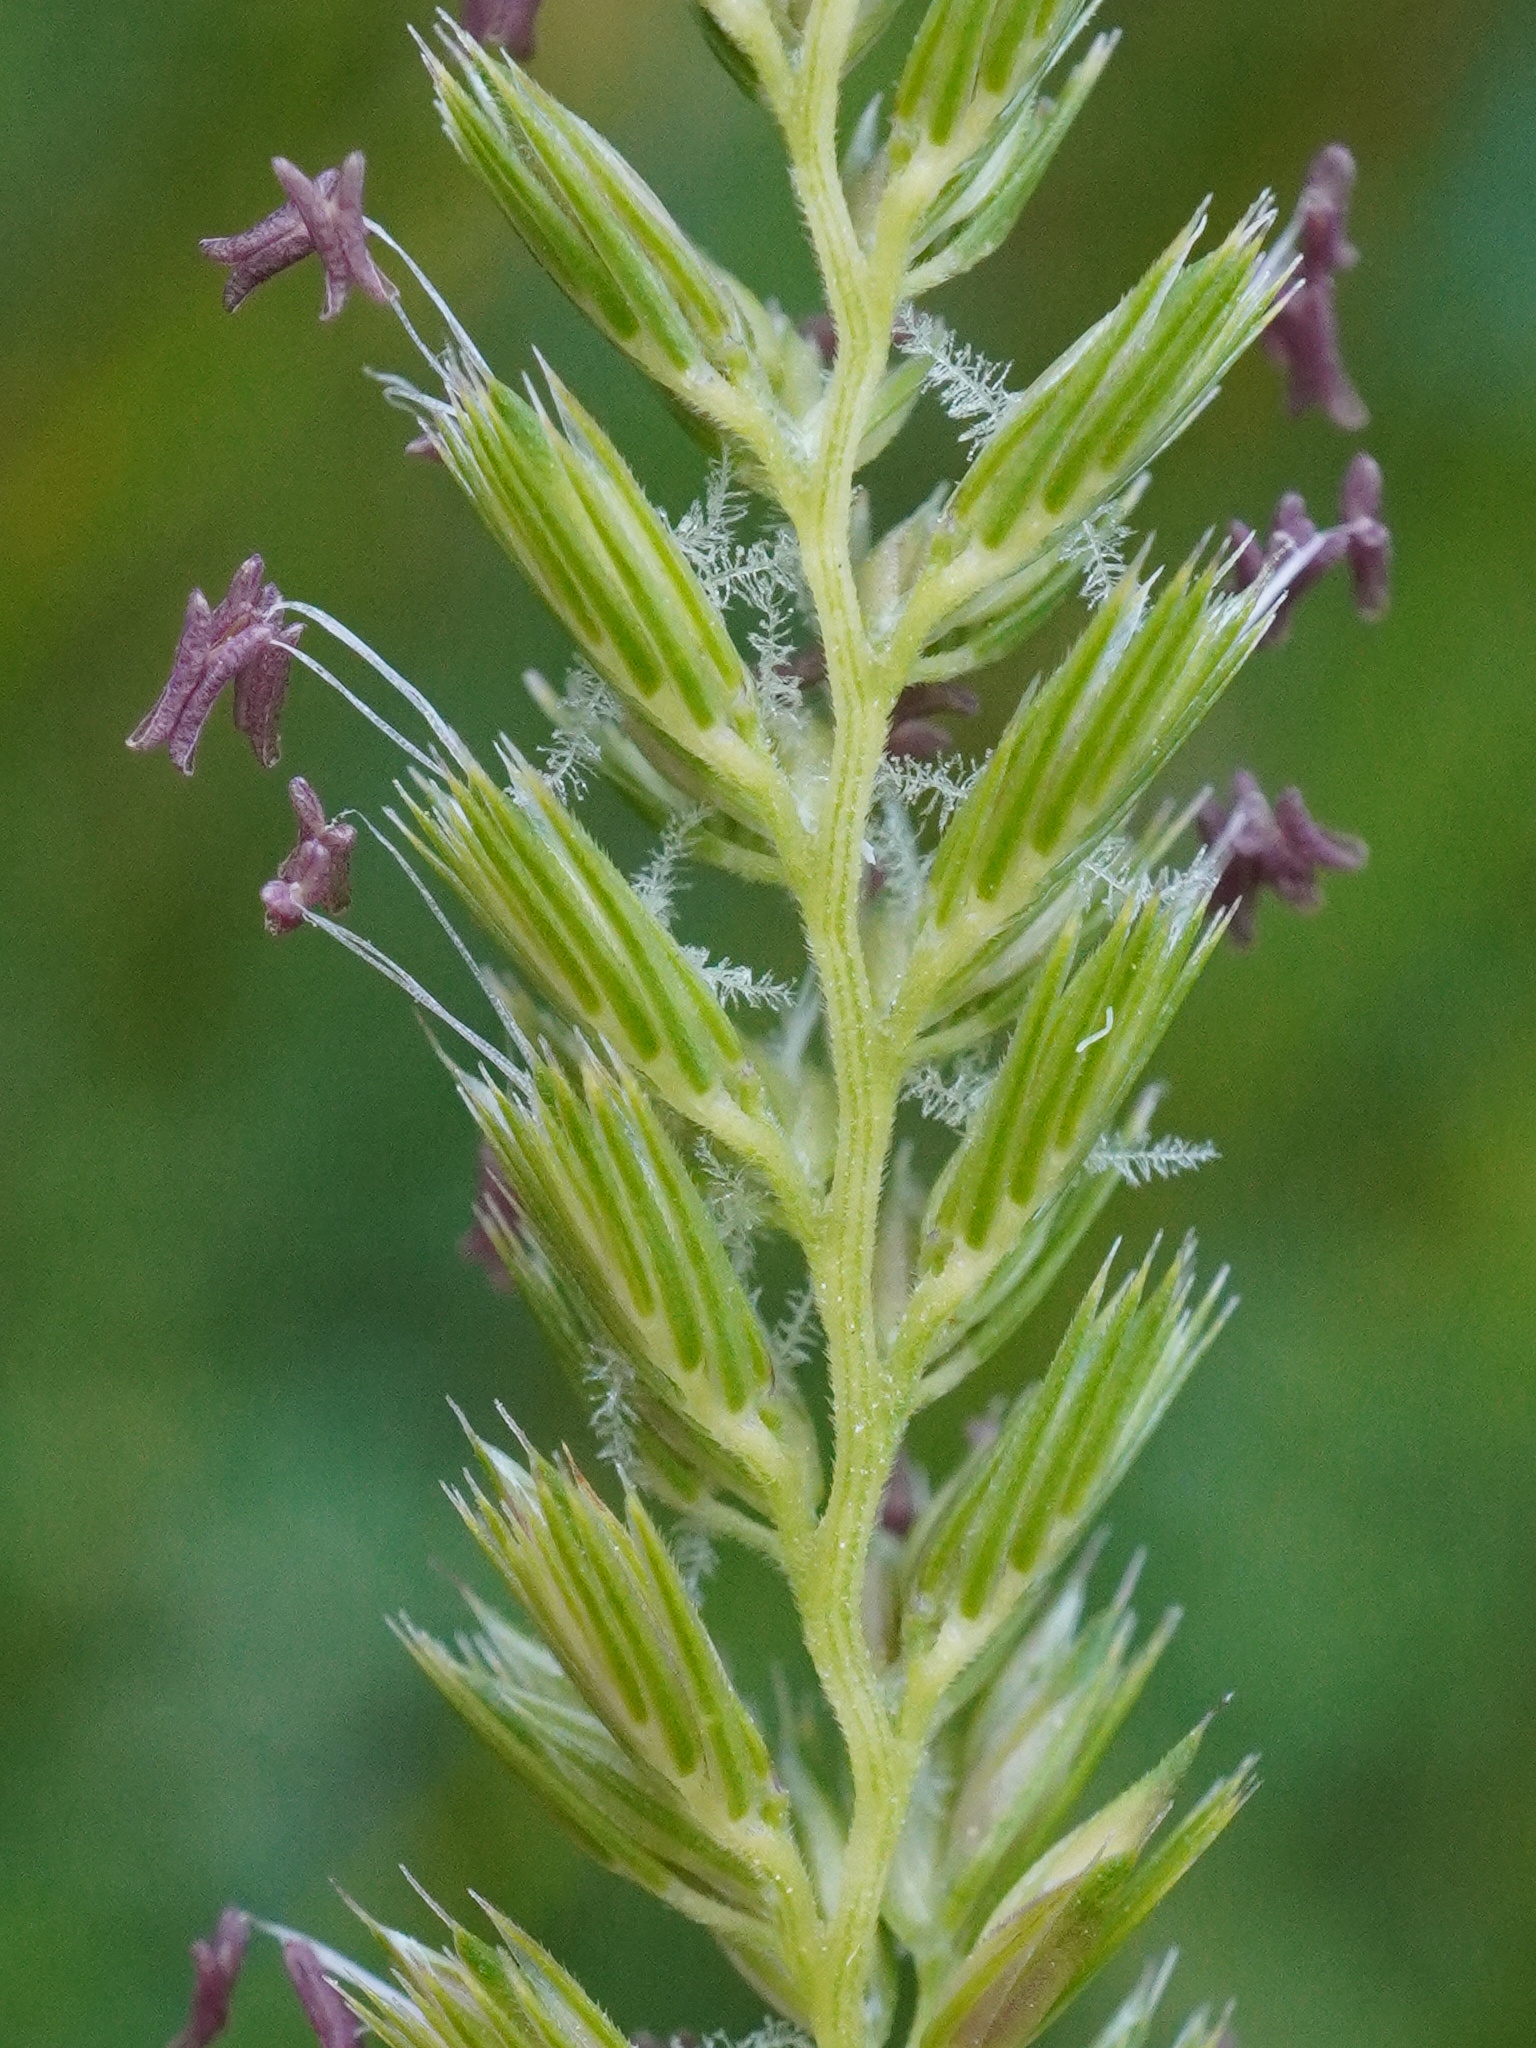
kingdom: Plantae
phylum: Tracheophyta
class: Liliopsida
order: Poales
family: Poaceae
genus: Cynosurus
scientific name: Cynosurus cristatus
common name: Crested dog's-tail
